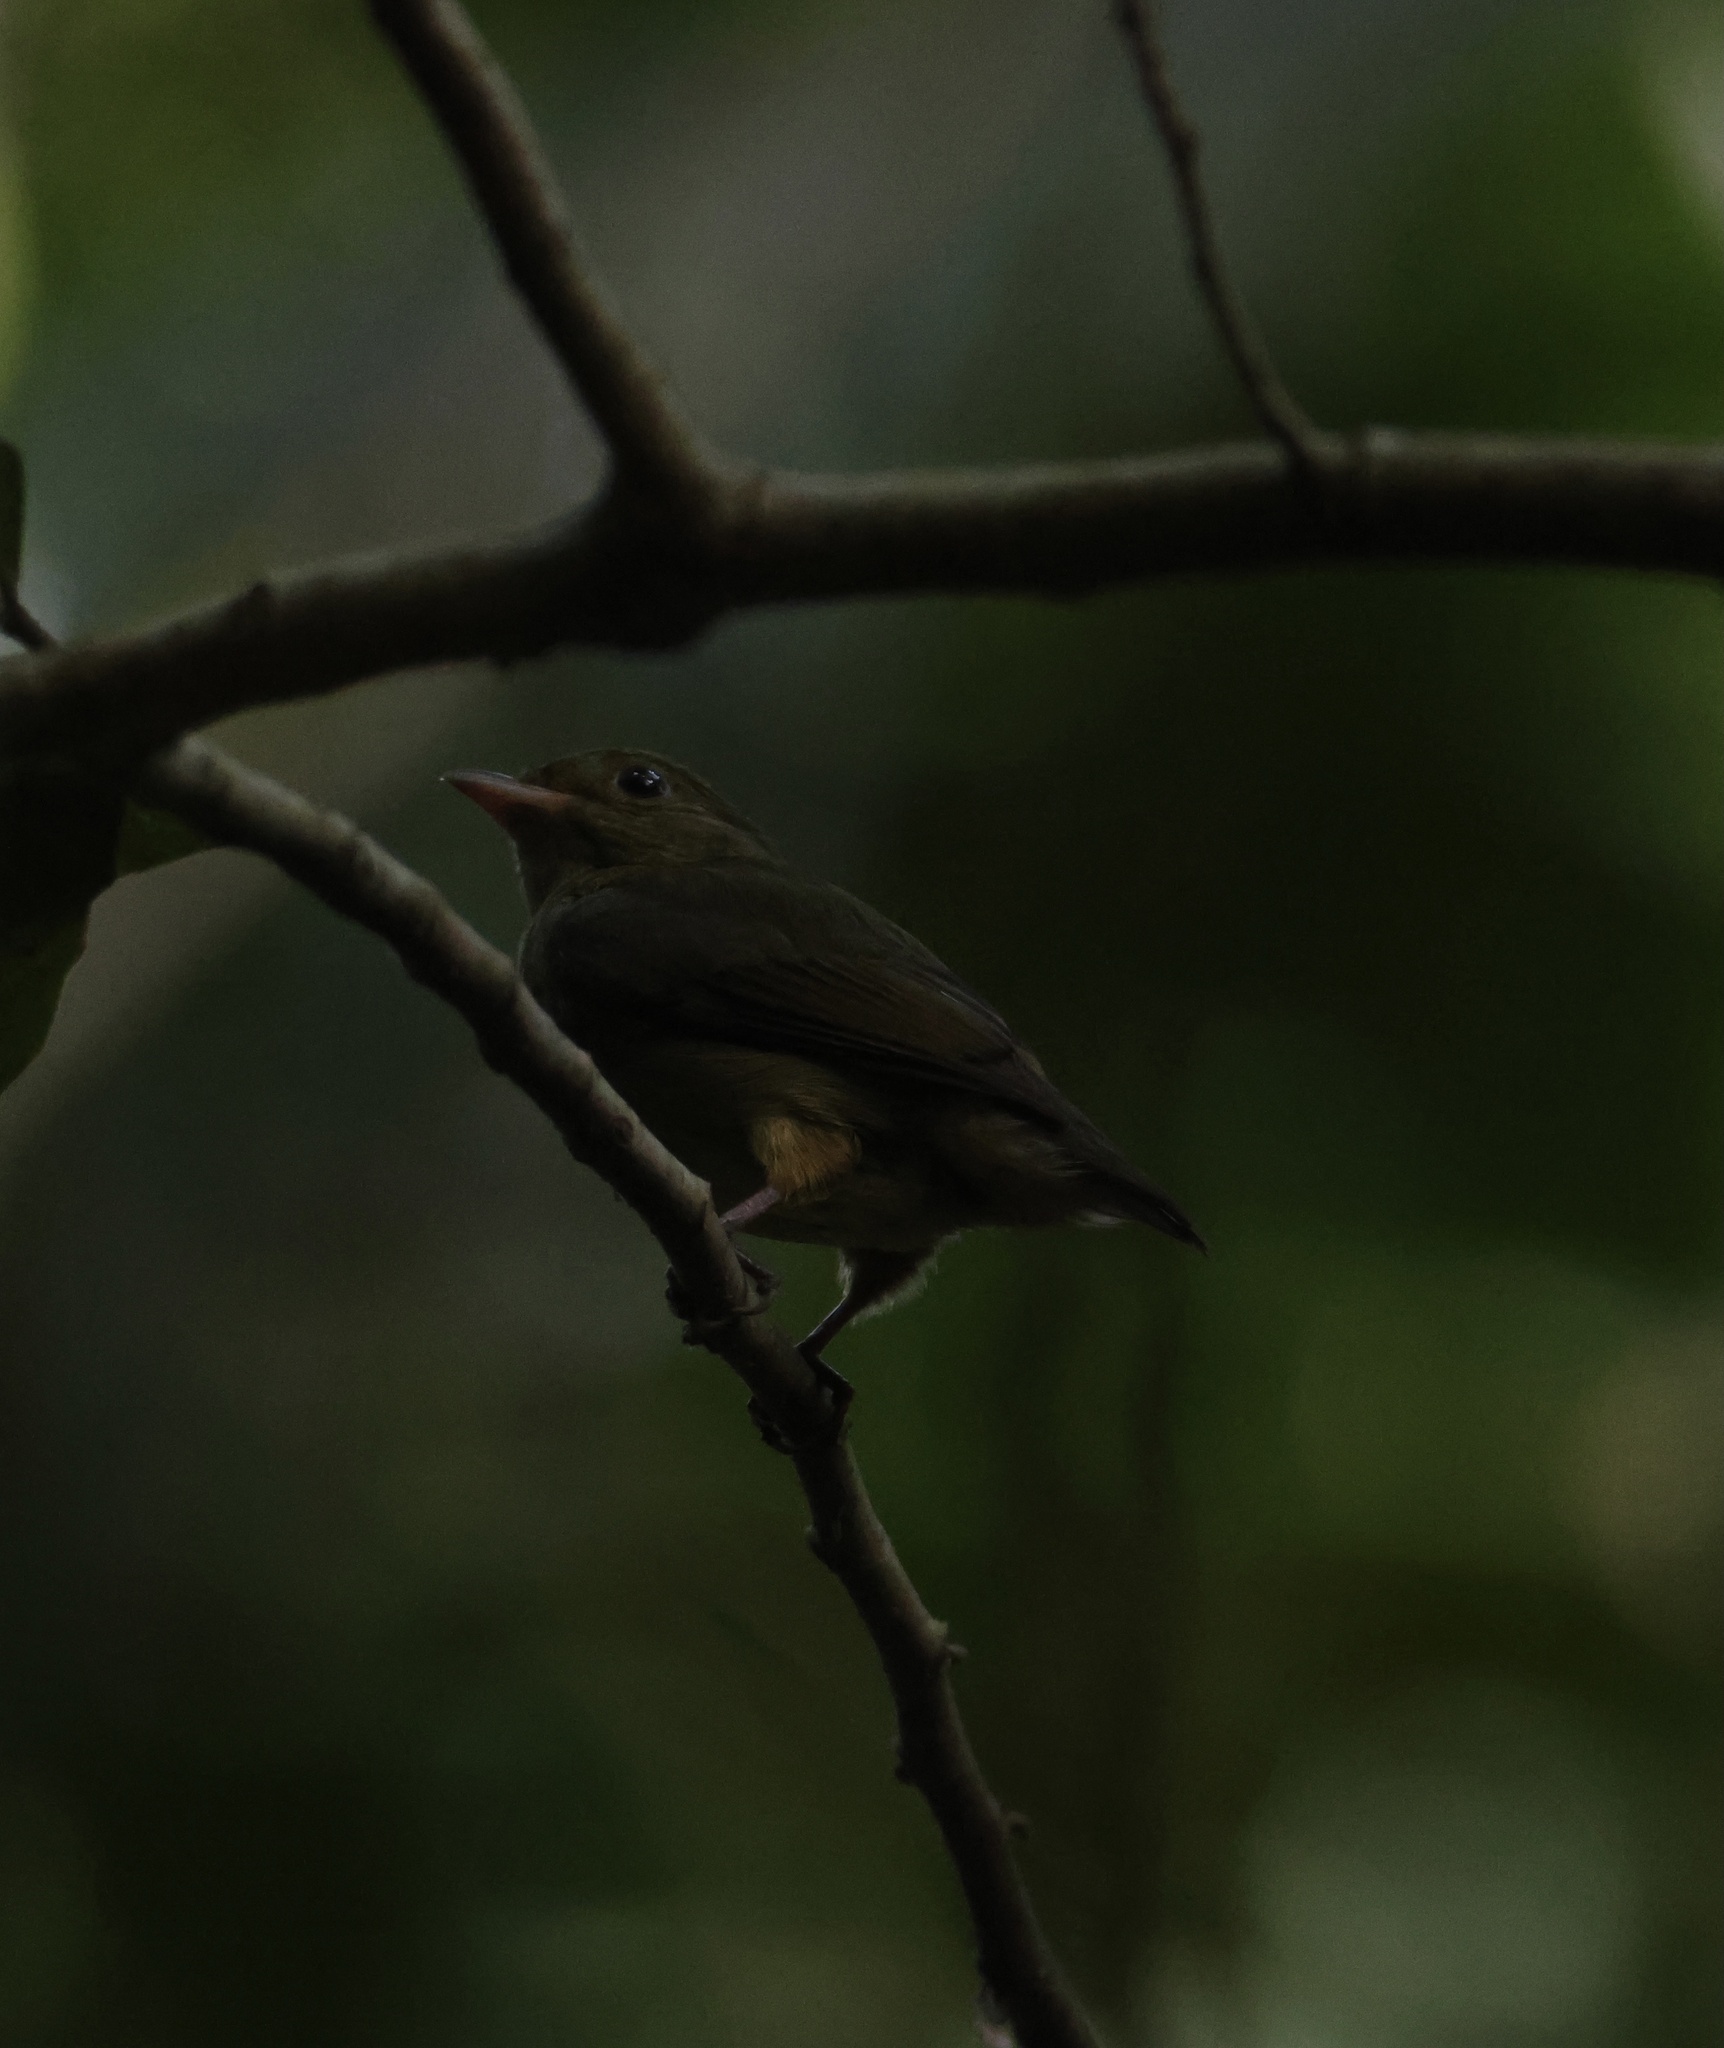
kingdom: Animalia
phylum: Chordata
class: Aves
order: Passeriformes
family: Pipridae
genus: Pipra
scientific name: Pipra mentalis
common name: Red-capped manakin
